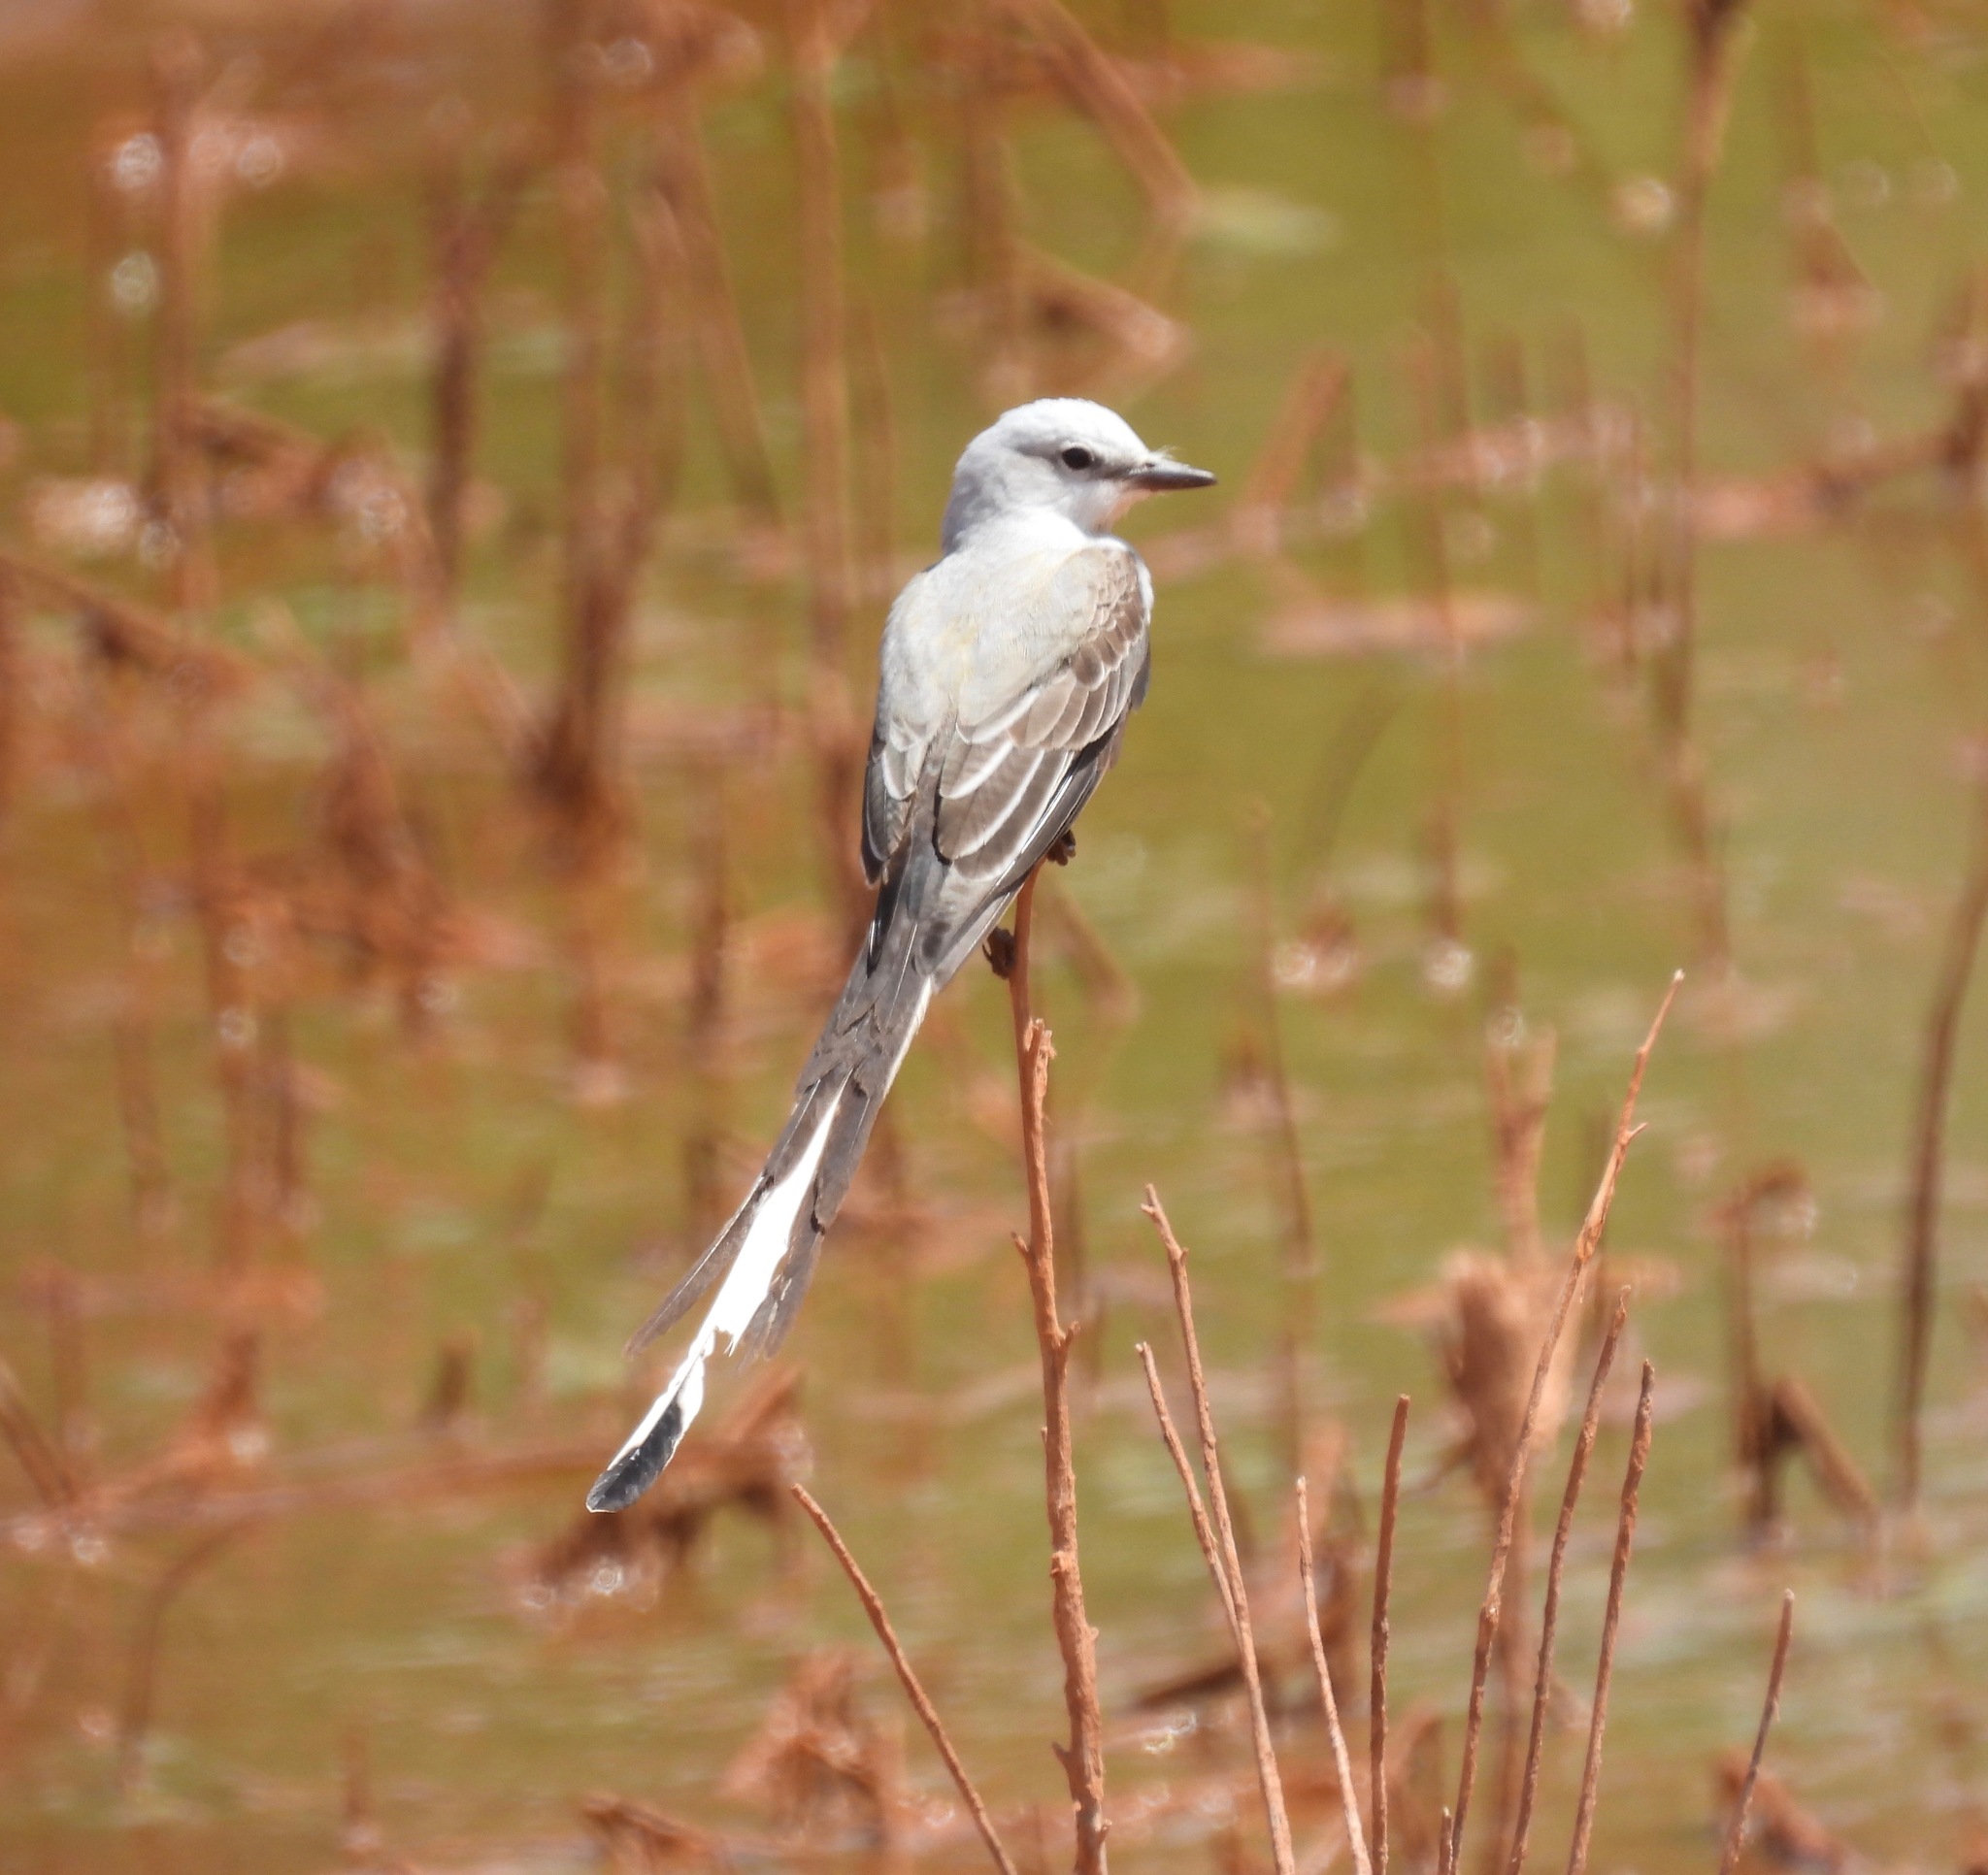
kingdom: Animalia
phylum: Chordata
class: Aves
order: Passeriformes
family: Tyrannidae
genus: Tyrannus
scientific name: Tyrannus forficatus
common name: Scissor-tailed flycatcher
